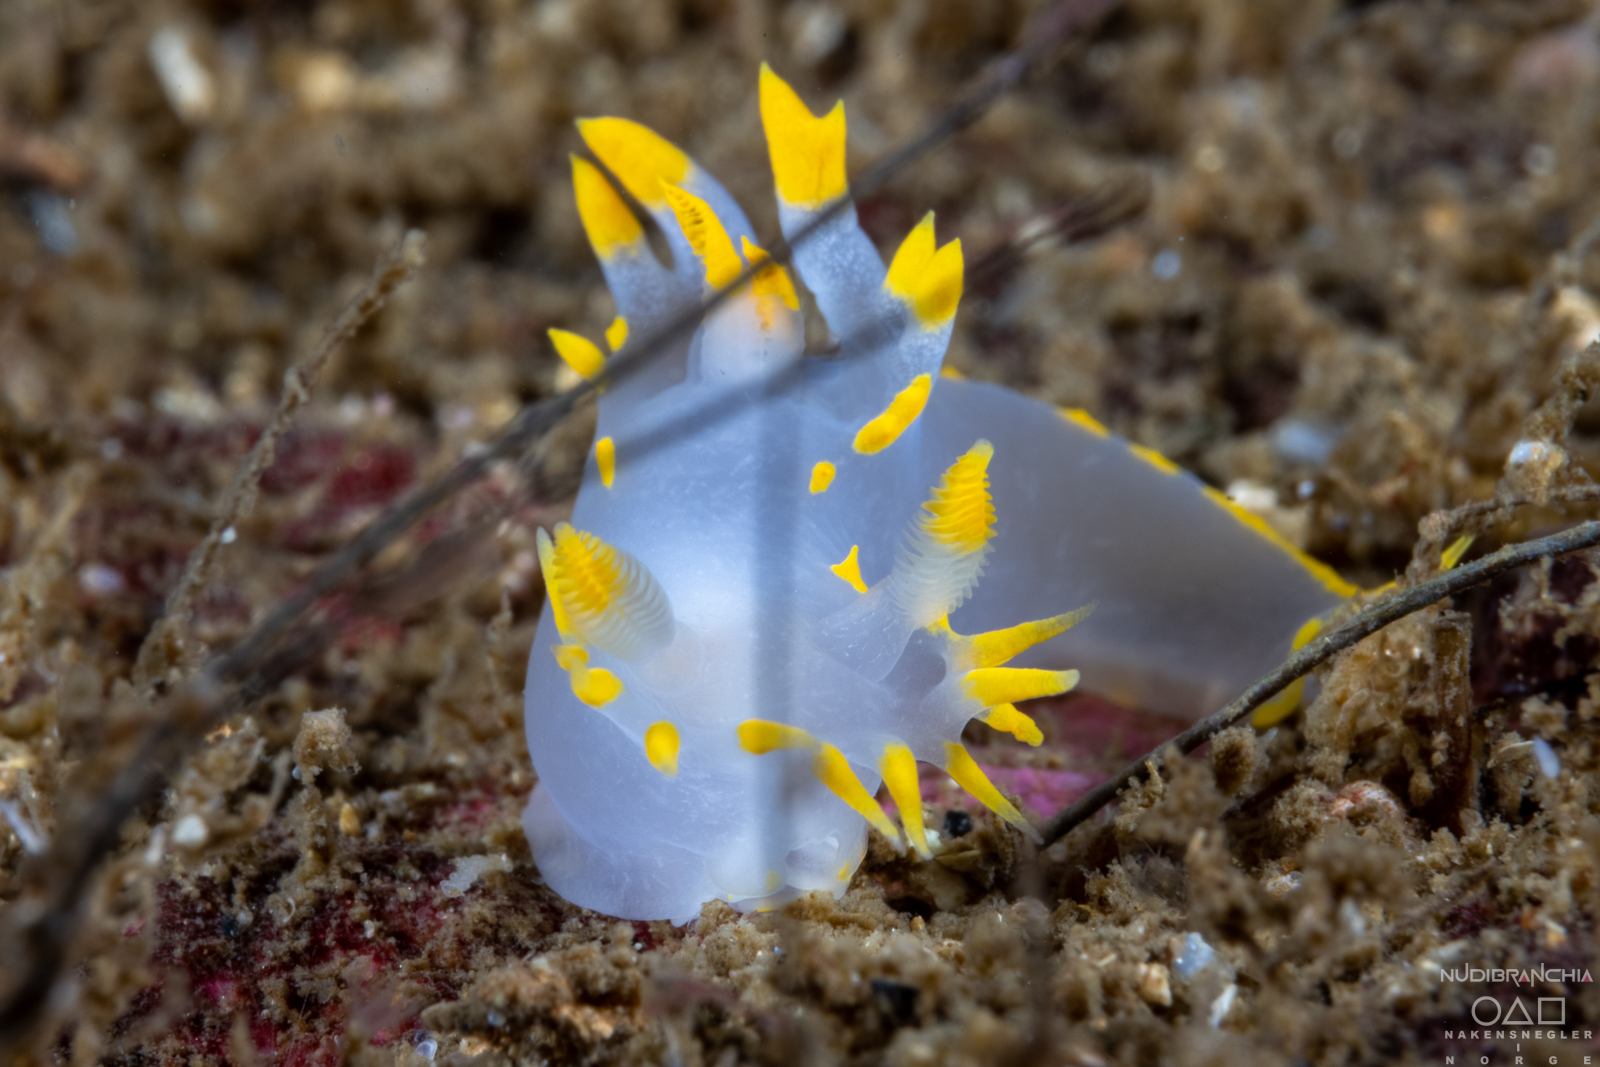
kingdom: Animalia
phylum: Mollusca
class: Gastropoda
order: Nudibranchia
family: Polyceridae
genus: Polycera
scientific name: Polycera faeroensis
